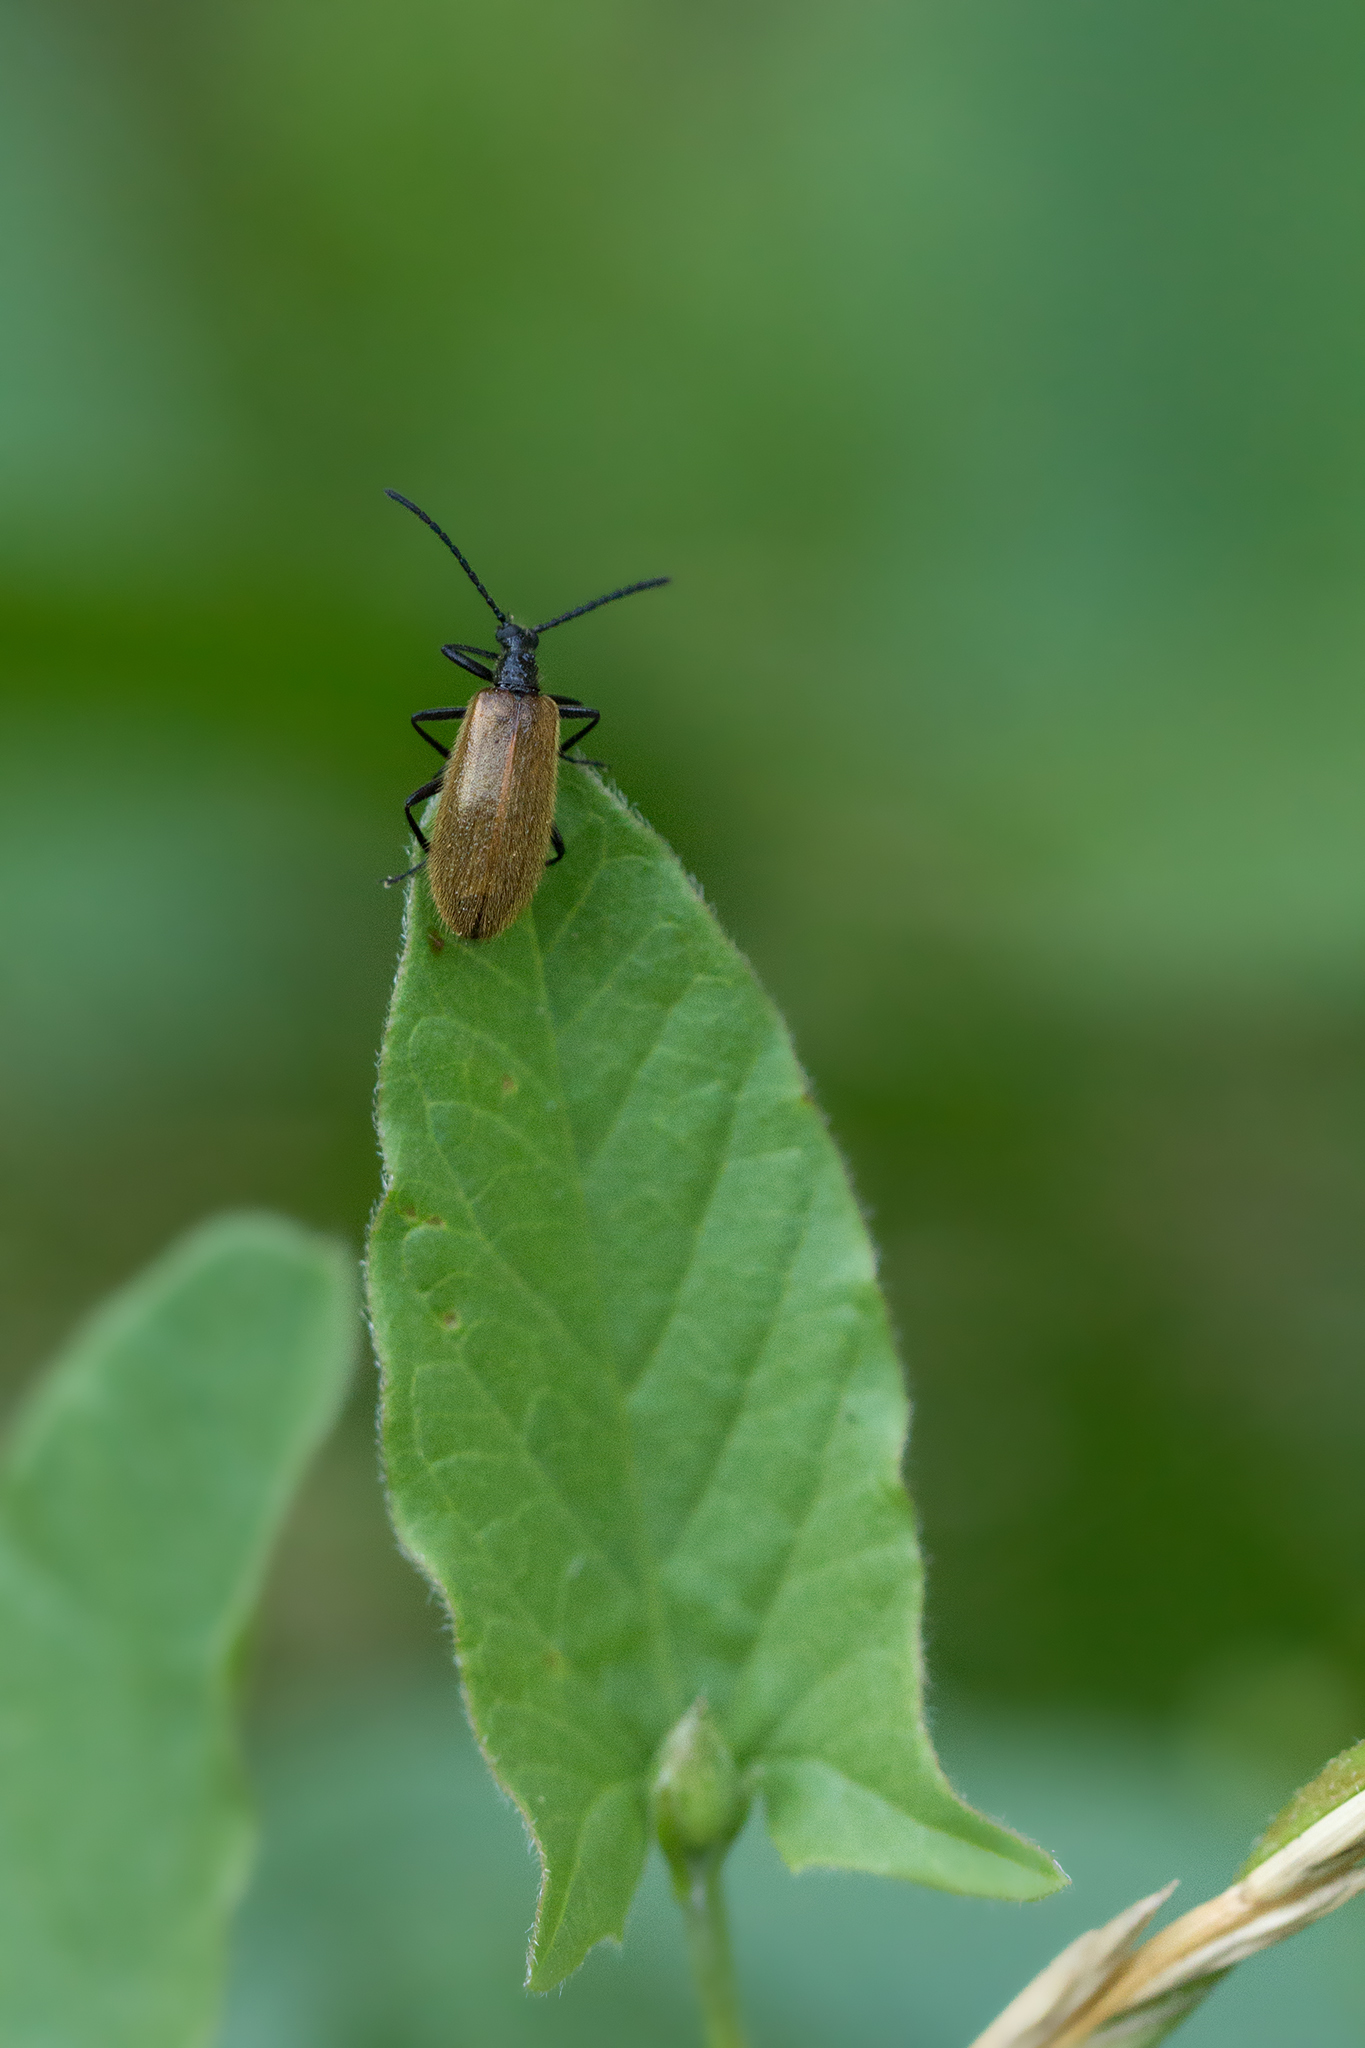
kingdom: Animalia
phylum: Arthropoda
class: Insecta
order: Coleoptera
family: Tenebrionidae
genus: Lagria
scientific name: Lagria hirta
